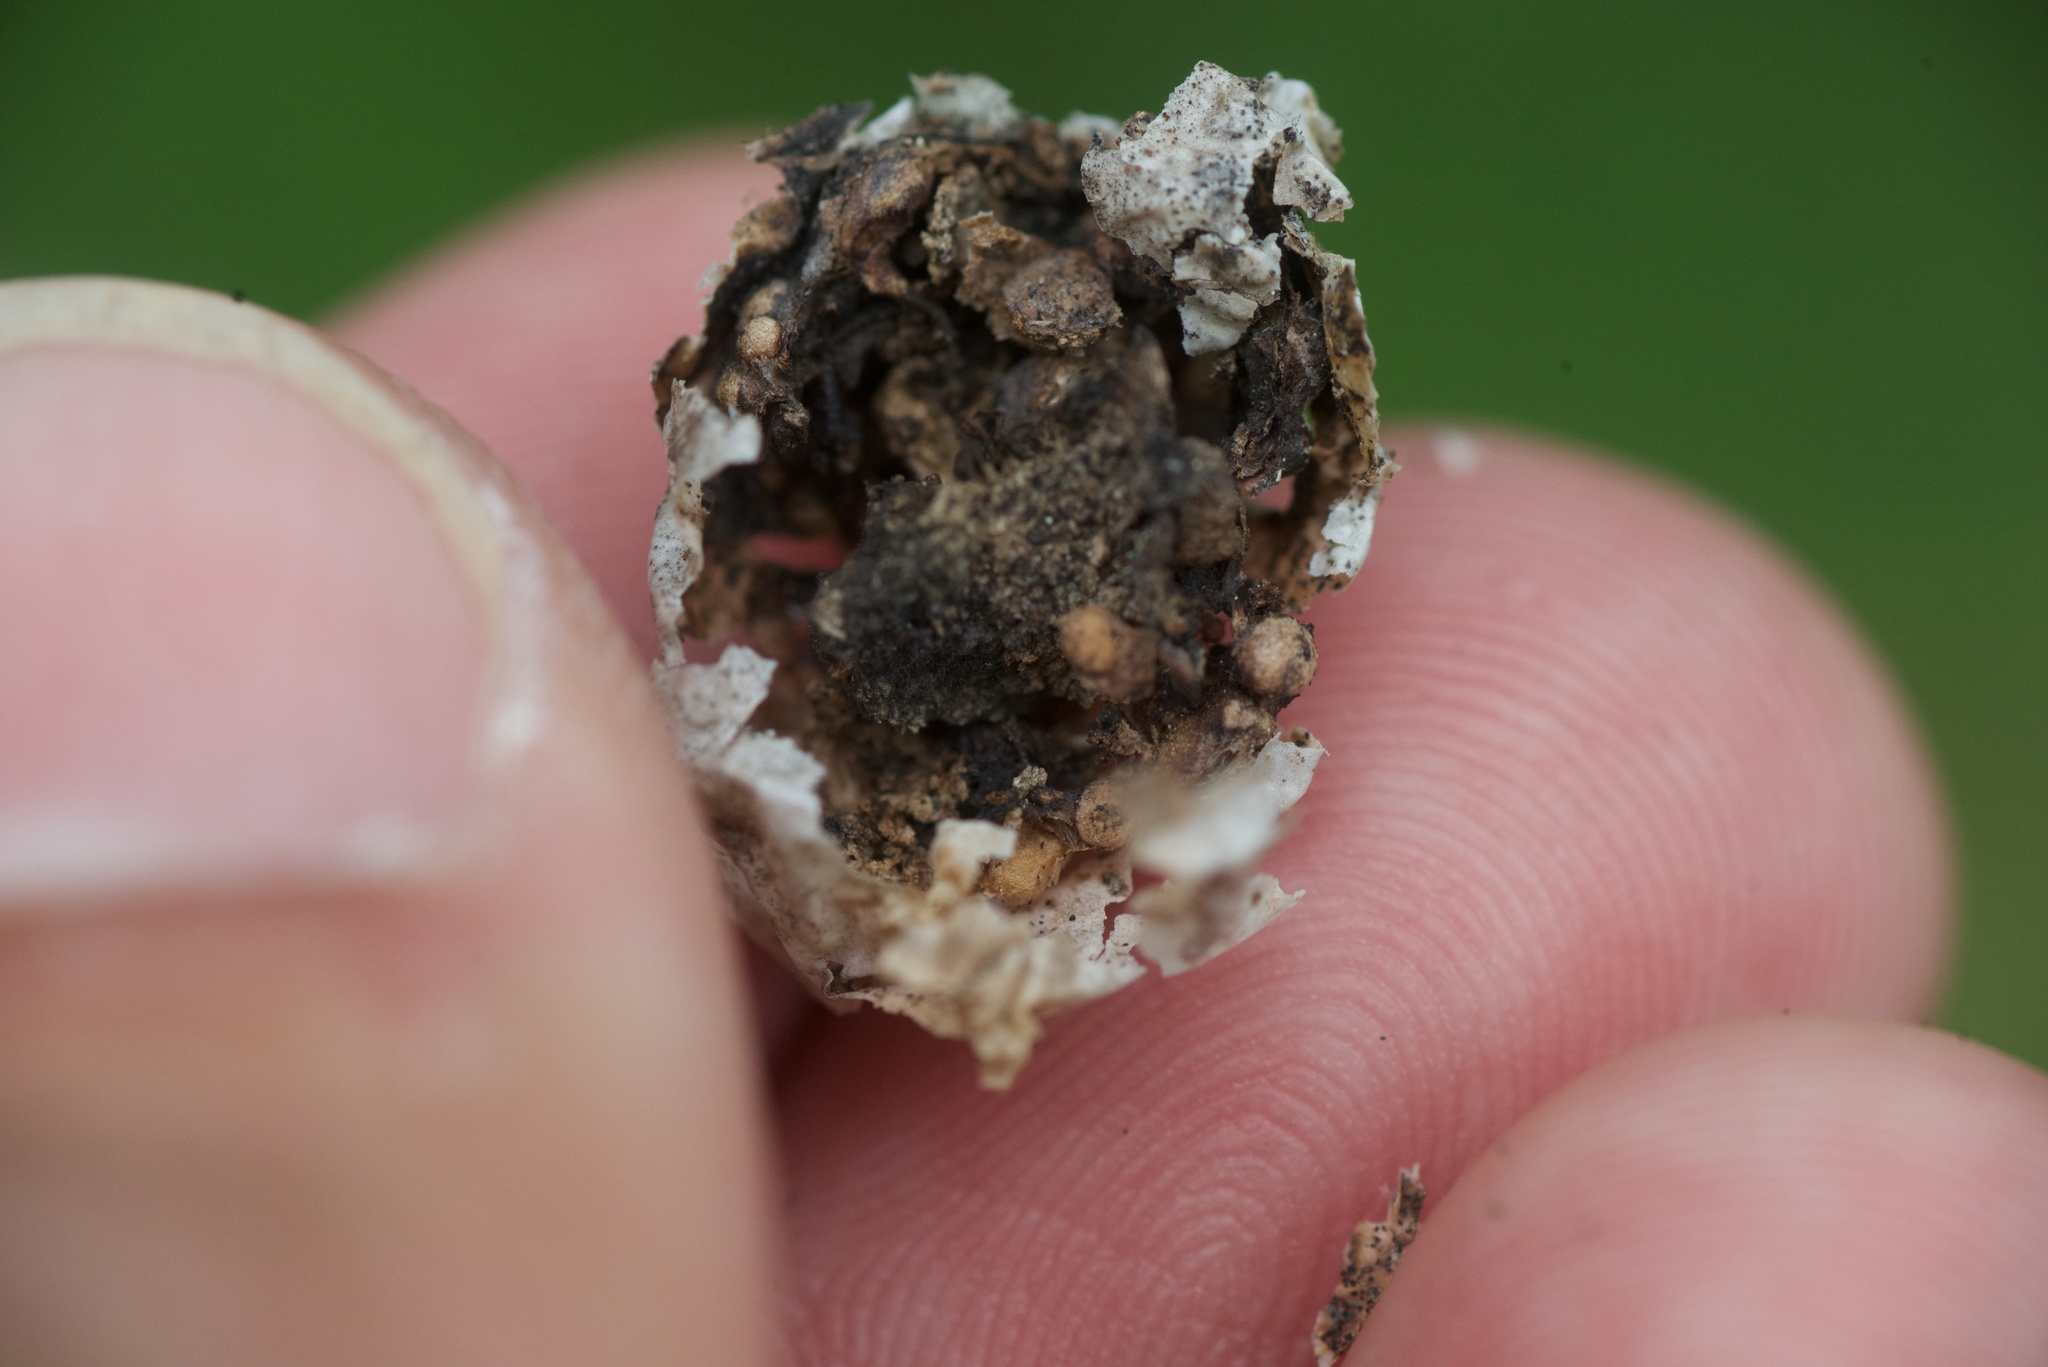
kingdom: Plantae
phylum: Tracheophyta
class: Magnoliopsida
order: Solanales
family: Solanaceae
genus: Solanum
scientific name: Solanum laciniatum
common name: Kangaroo-apple
